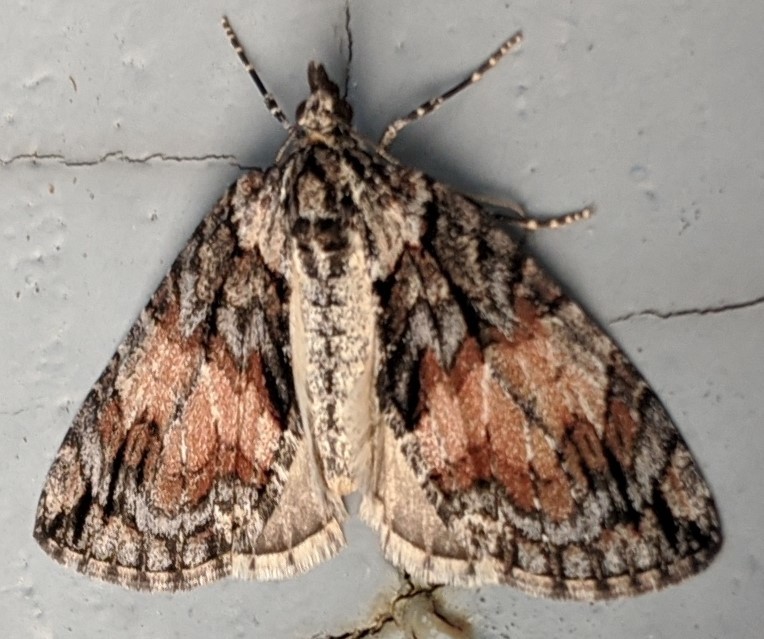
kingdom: Animalia
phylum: Arthropoda
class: Insecta
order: Lepidoptera
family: Geometridae
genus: Hydriomena
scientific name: Hydriomena perfracta
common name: Shattered hydriomena moth
